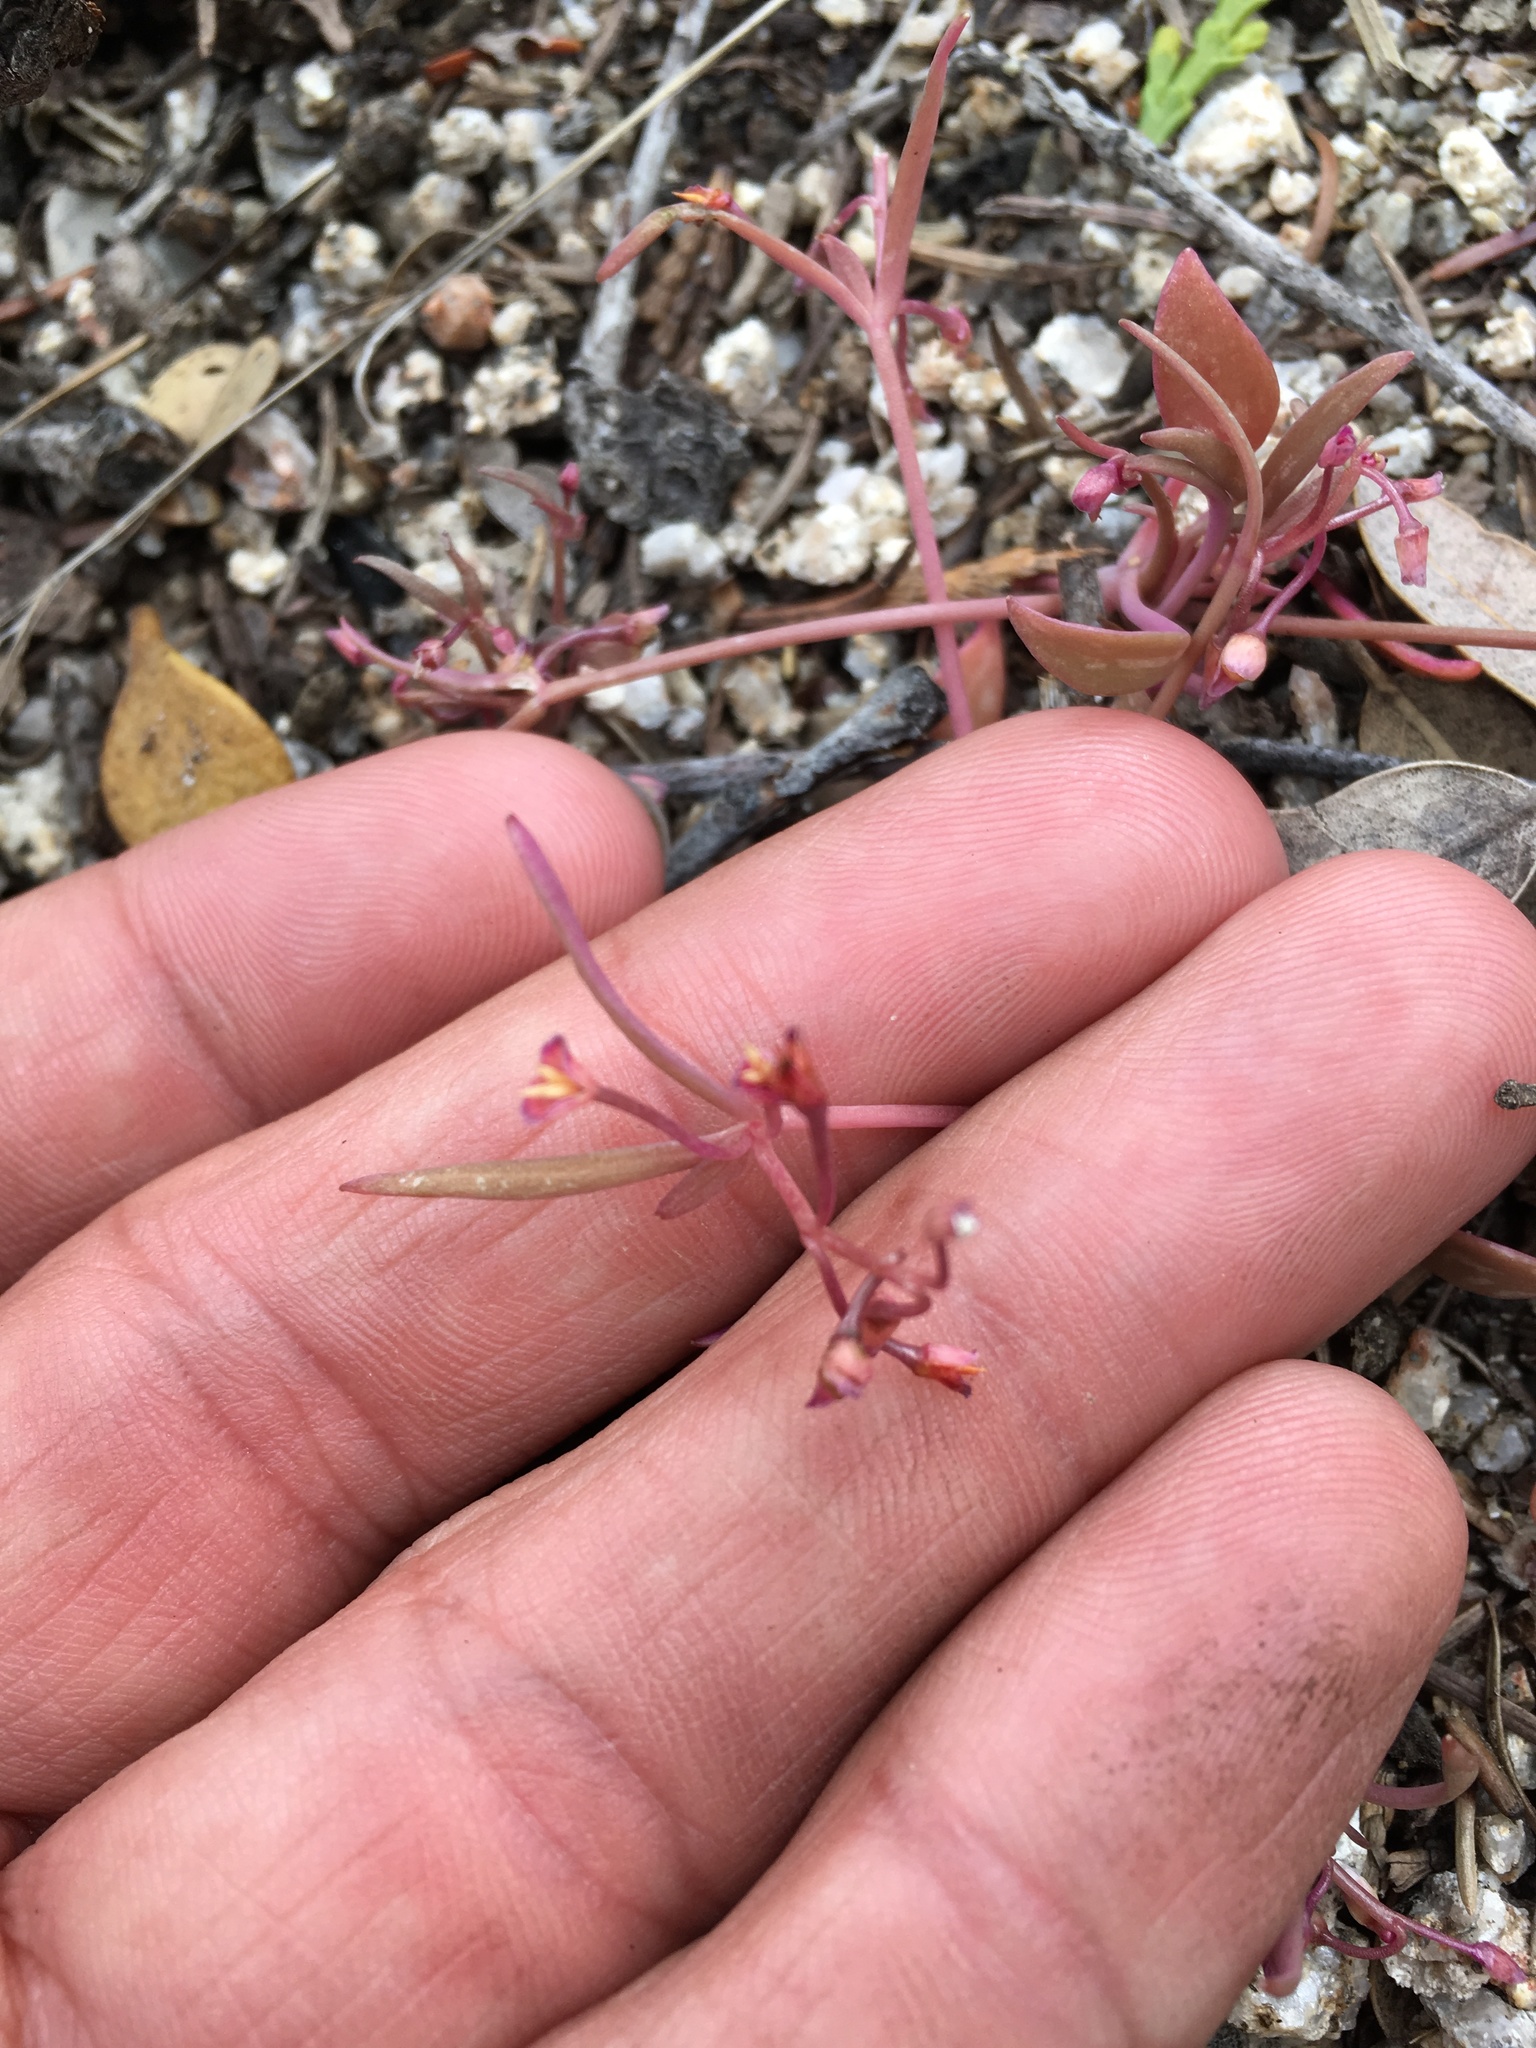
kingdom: Plantae
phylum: Tracheophyta
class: Magnoliopsida
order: Caryophyllales
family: Montiaceae
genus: Claytonia
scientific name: Claytonia parviflora
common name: Indian-lettuce
